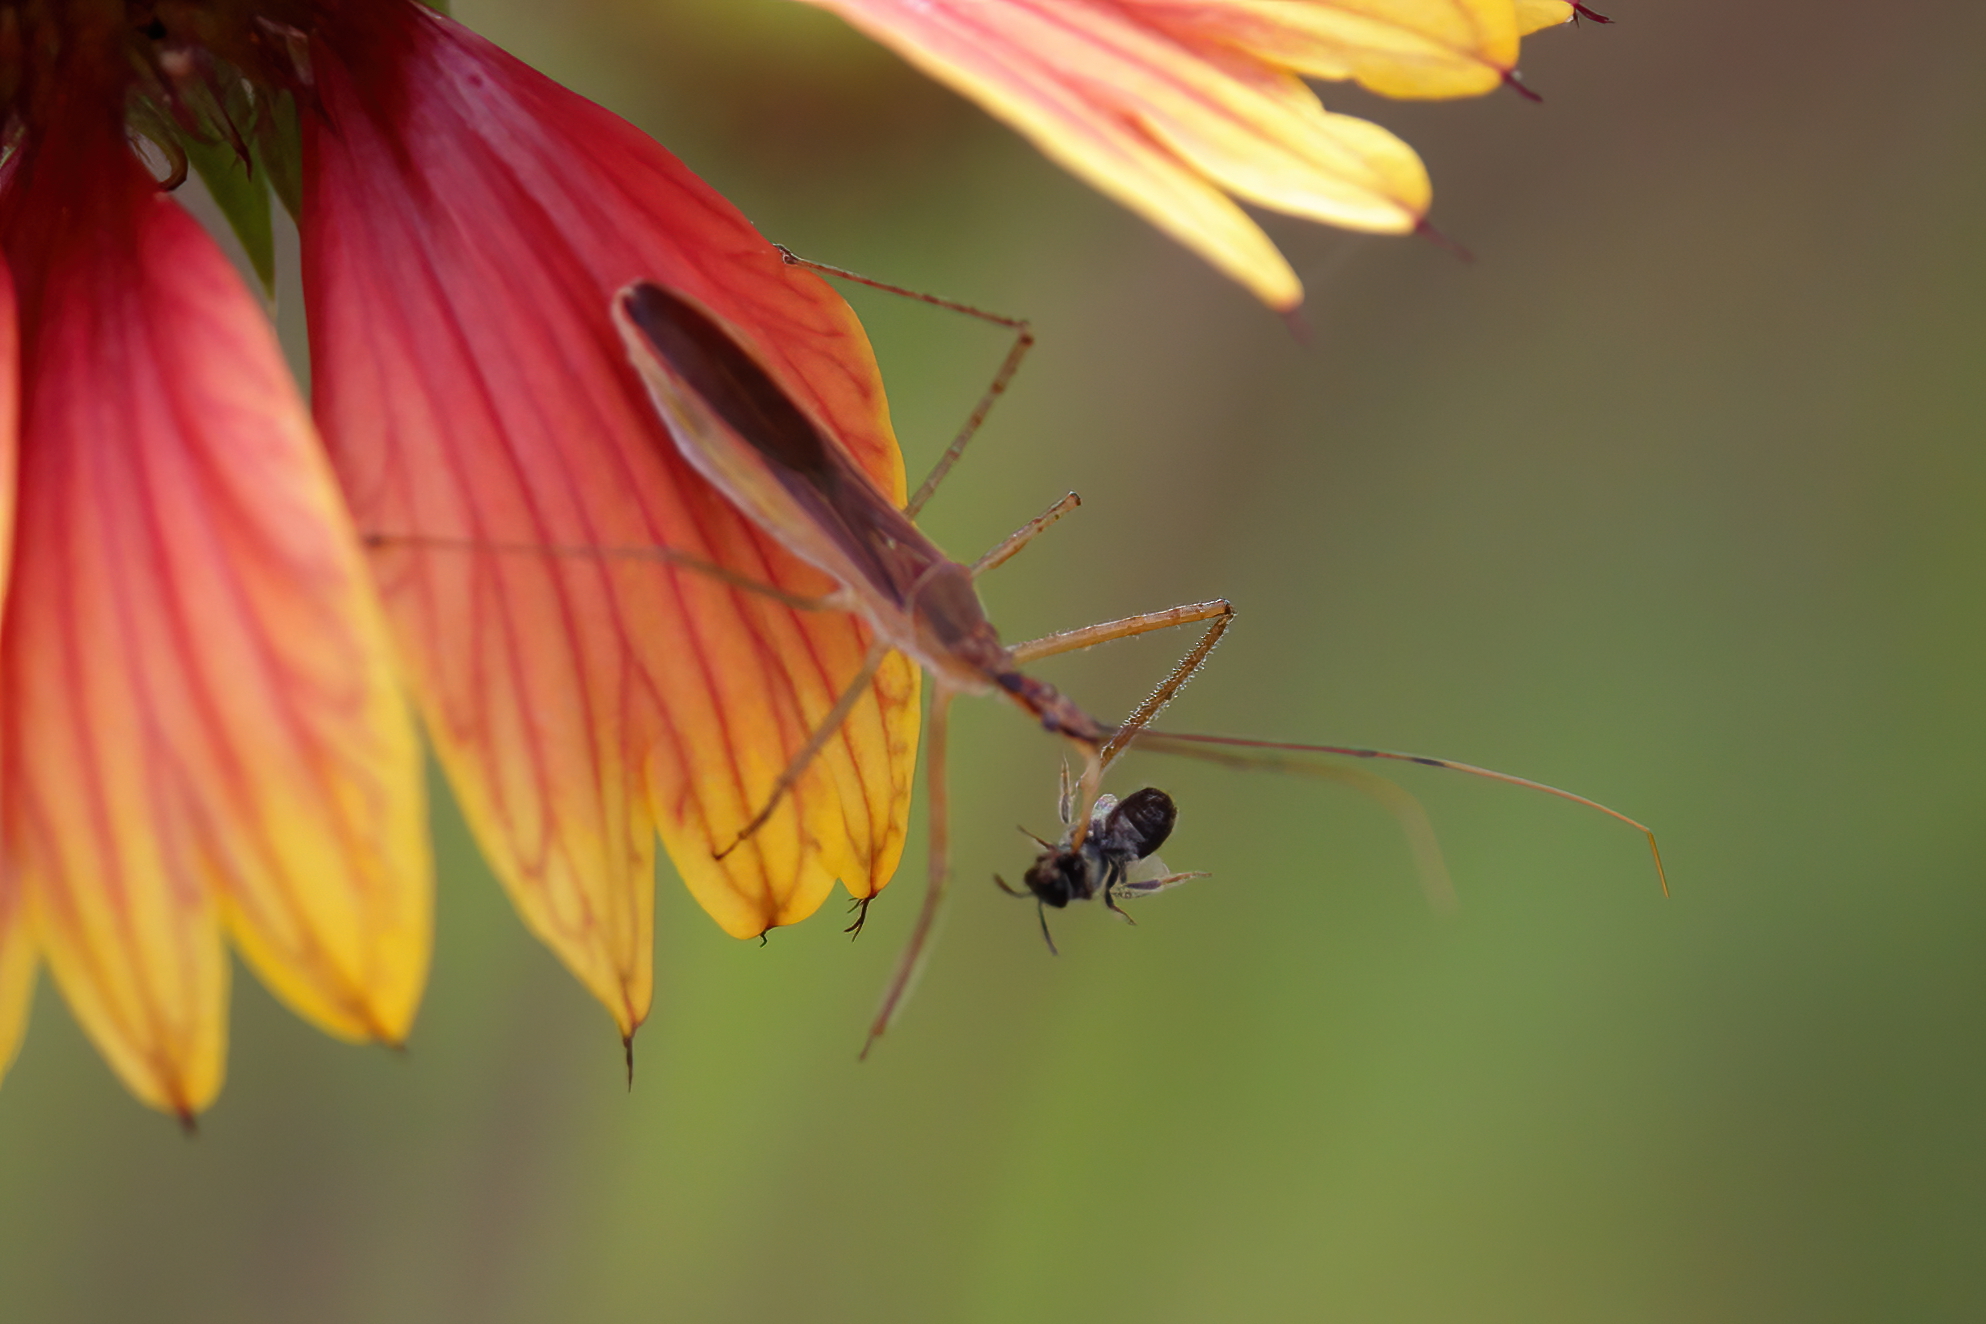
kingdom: Animalia
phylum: Arthropoda
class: Insecta
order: Hemiptera
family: Reduviidae
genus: Zelus
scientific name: Zelus cervicalis
